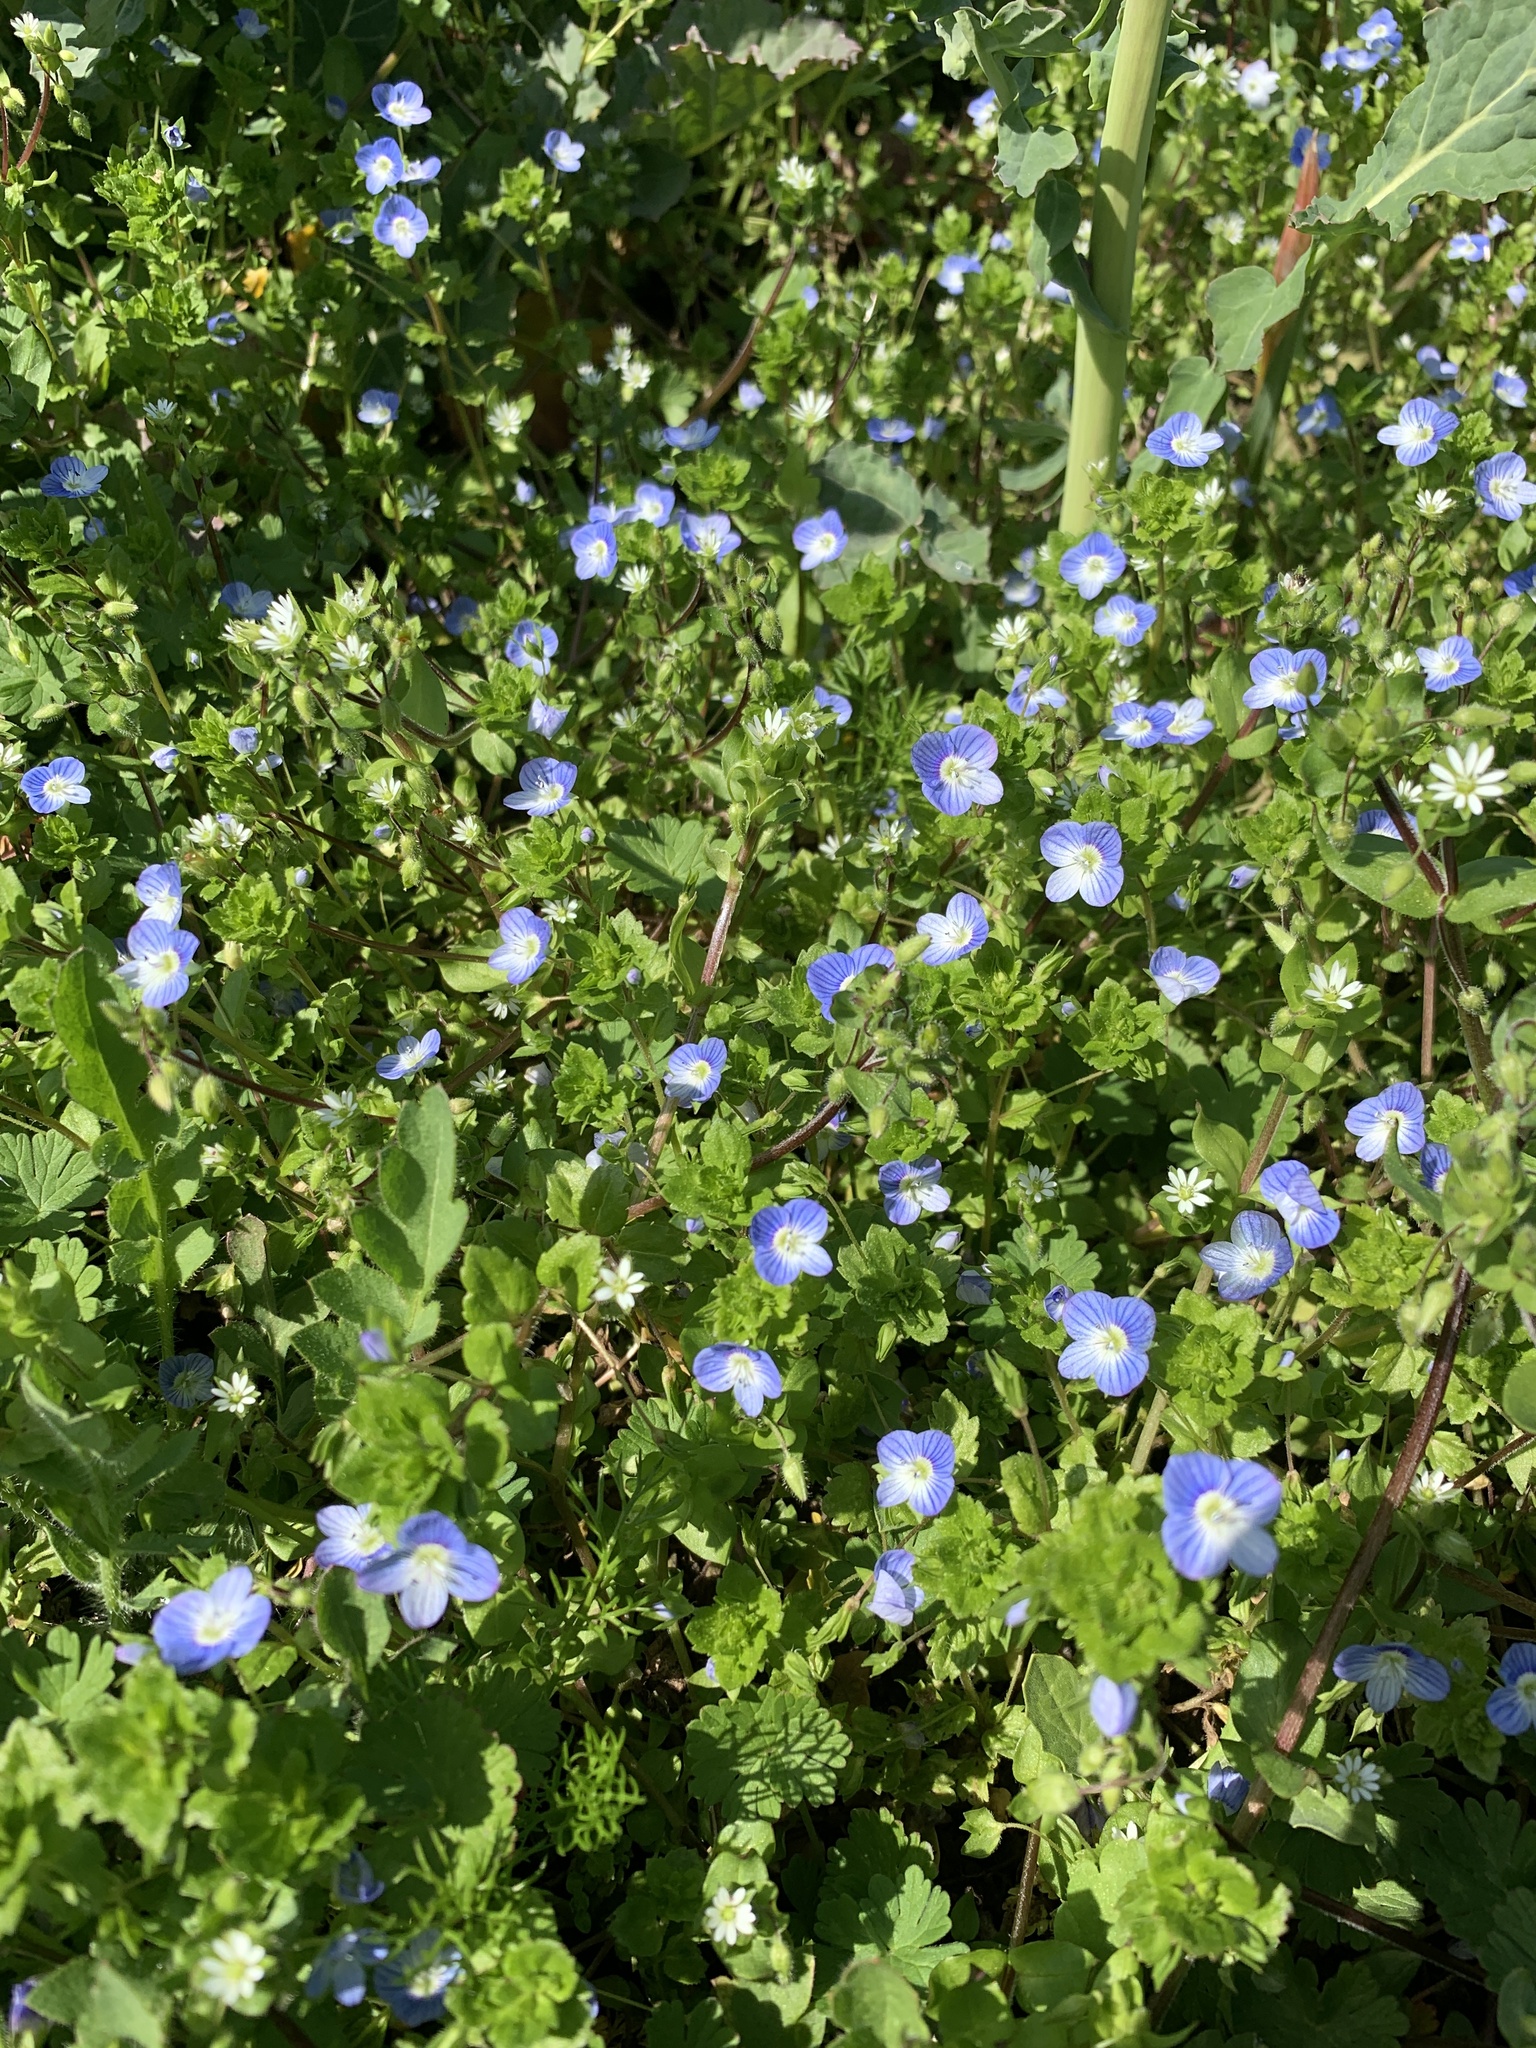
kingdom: Plantae
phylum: Tracheophyta
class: Magnoliopsida
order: Lamiales
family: Plantaginaceae
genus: Veronica
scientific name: Veronica persica
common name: Common field-speedwell
